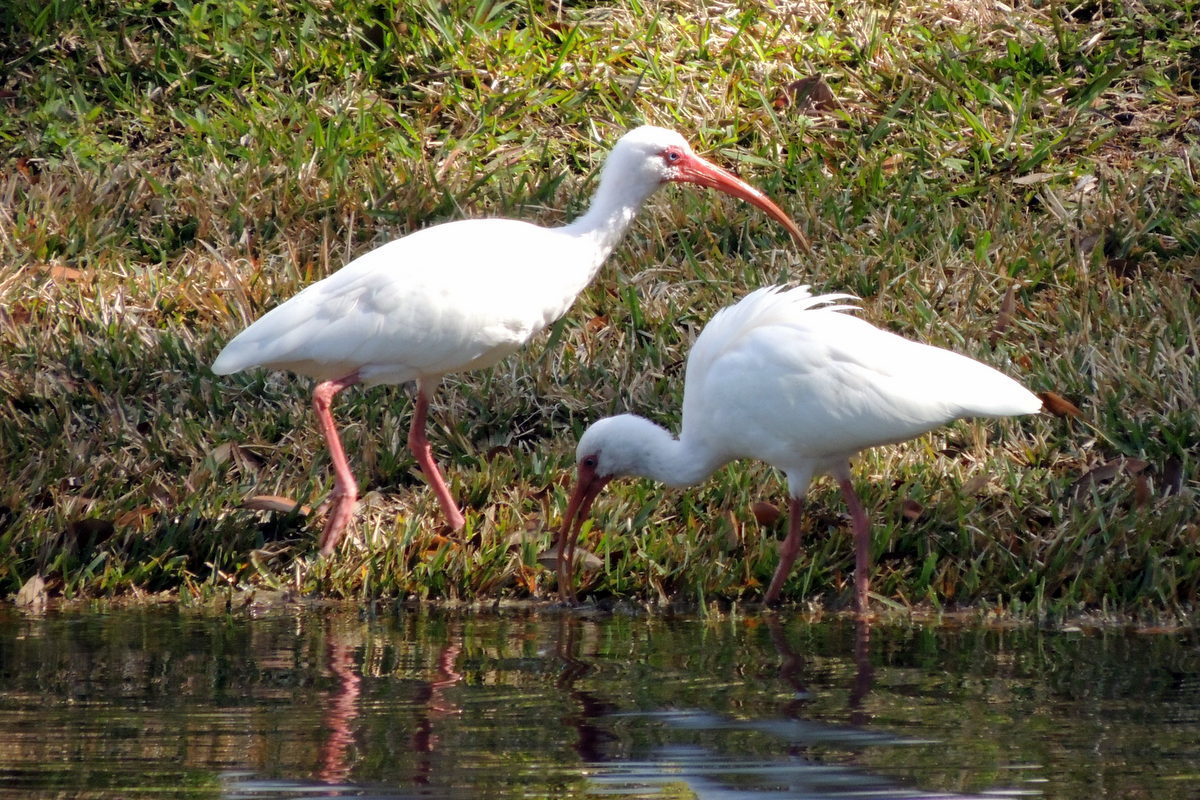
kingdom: Animalia
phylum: Chordata
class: Aves
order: Pelecaniformes
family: Threskiornithidae
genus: Eudocimus
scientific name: Eudocimus albus
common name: White ibis
